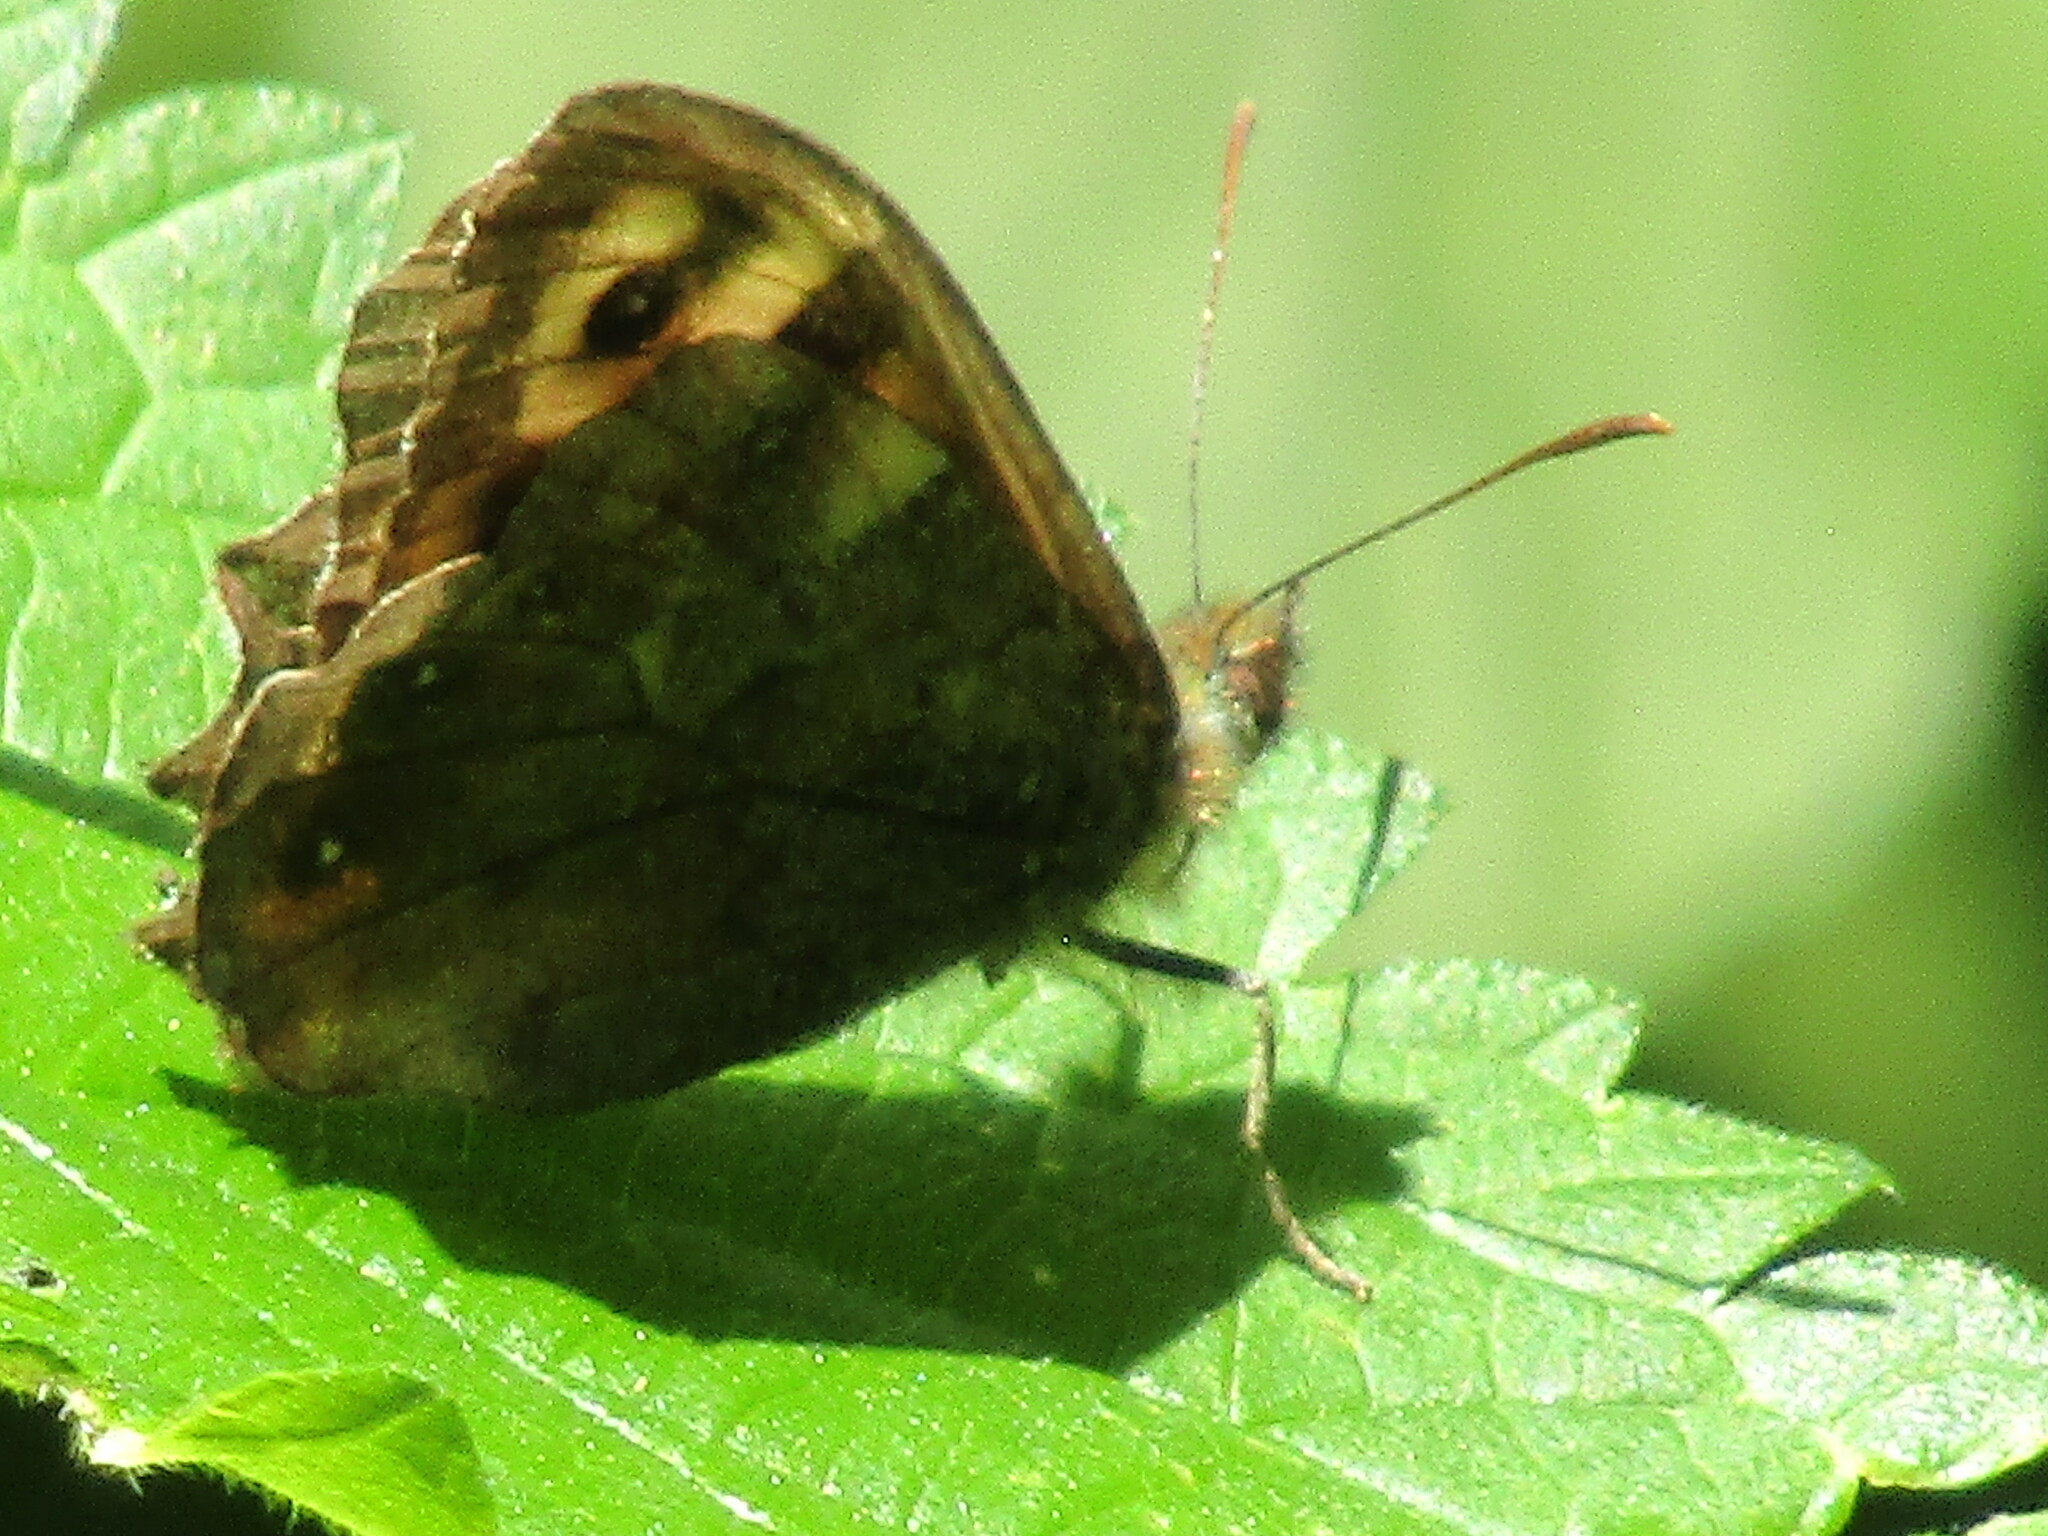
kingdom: Animalia
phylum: Arthropoda
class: Insecta
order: Lepidoptera
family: Nymphalidae
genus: Pararge
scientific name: Pararge aegeria
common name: Speckled wood
